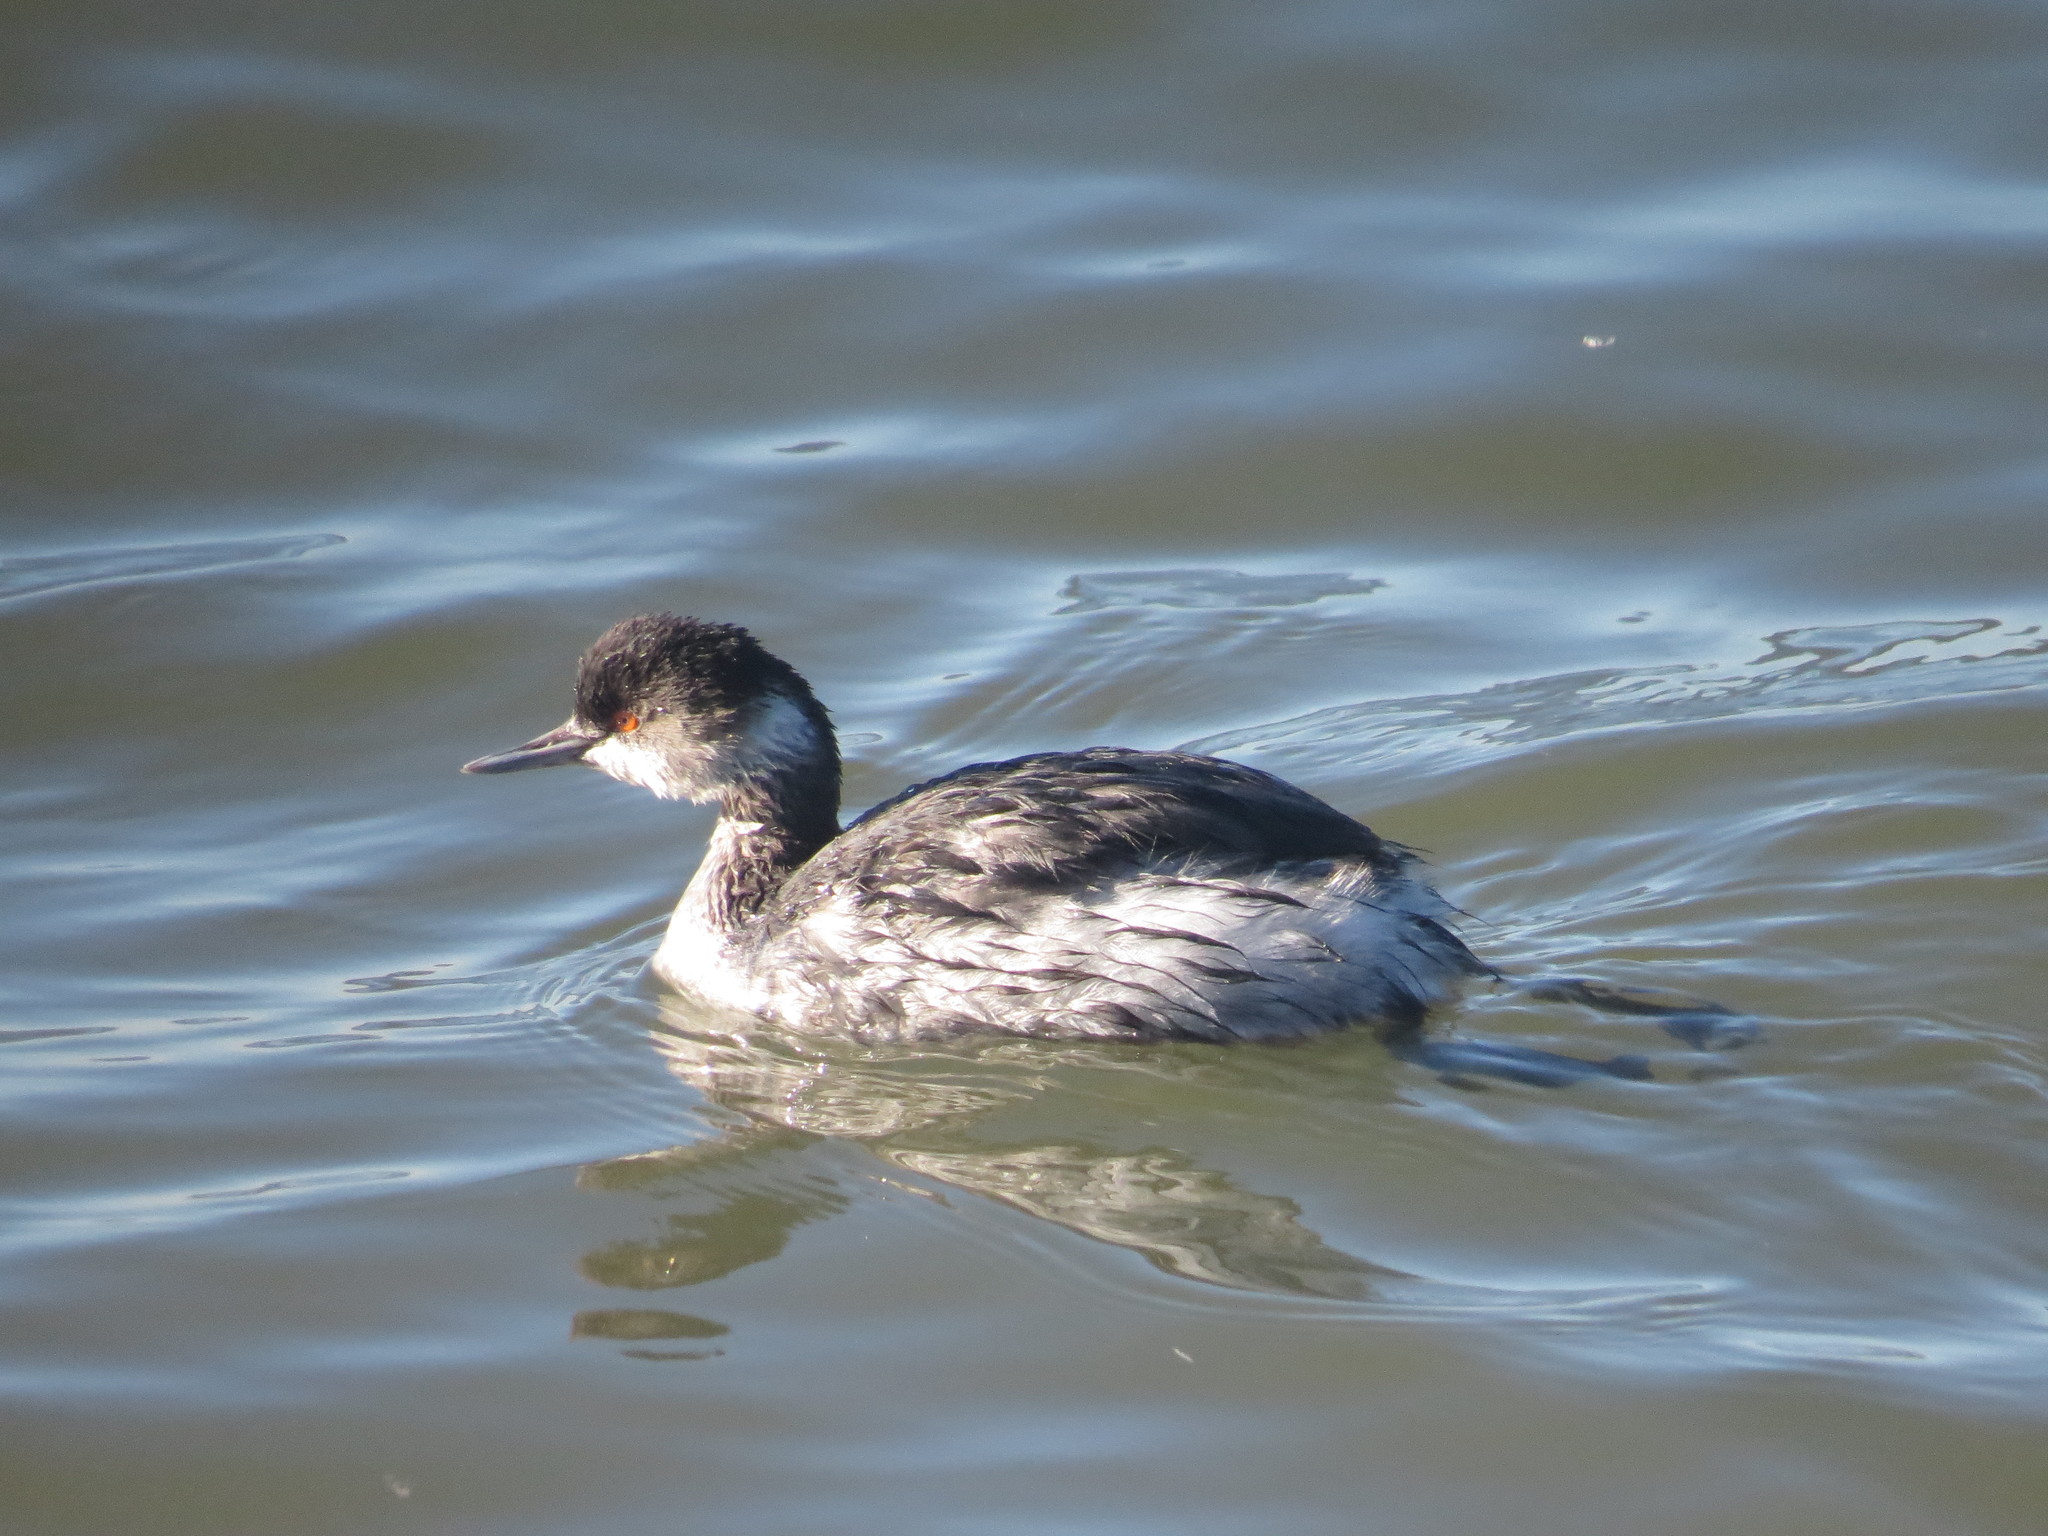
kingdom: Animalia
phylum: Chordata
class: Aves
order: Podicipediformes
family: Podicipedidae
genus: Podiceps
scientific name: Podiceps nigricollis
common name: Black-necked grebe
